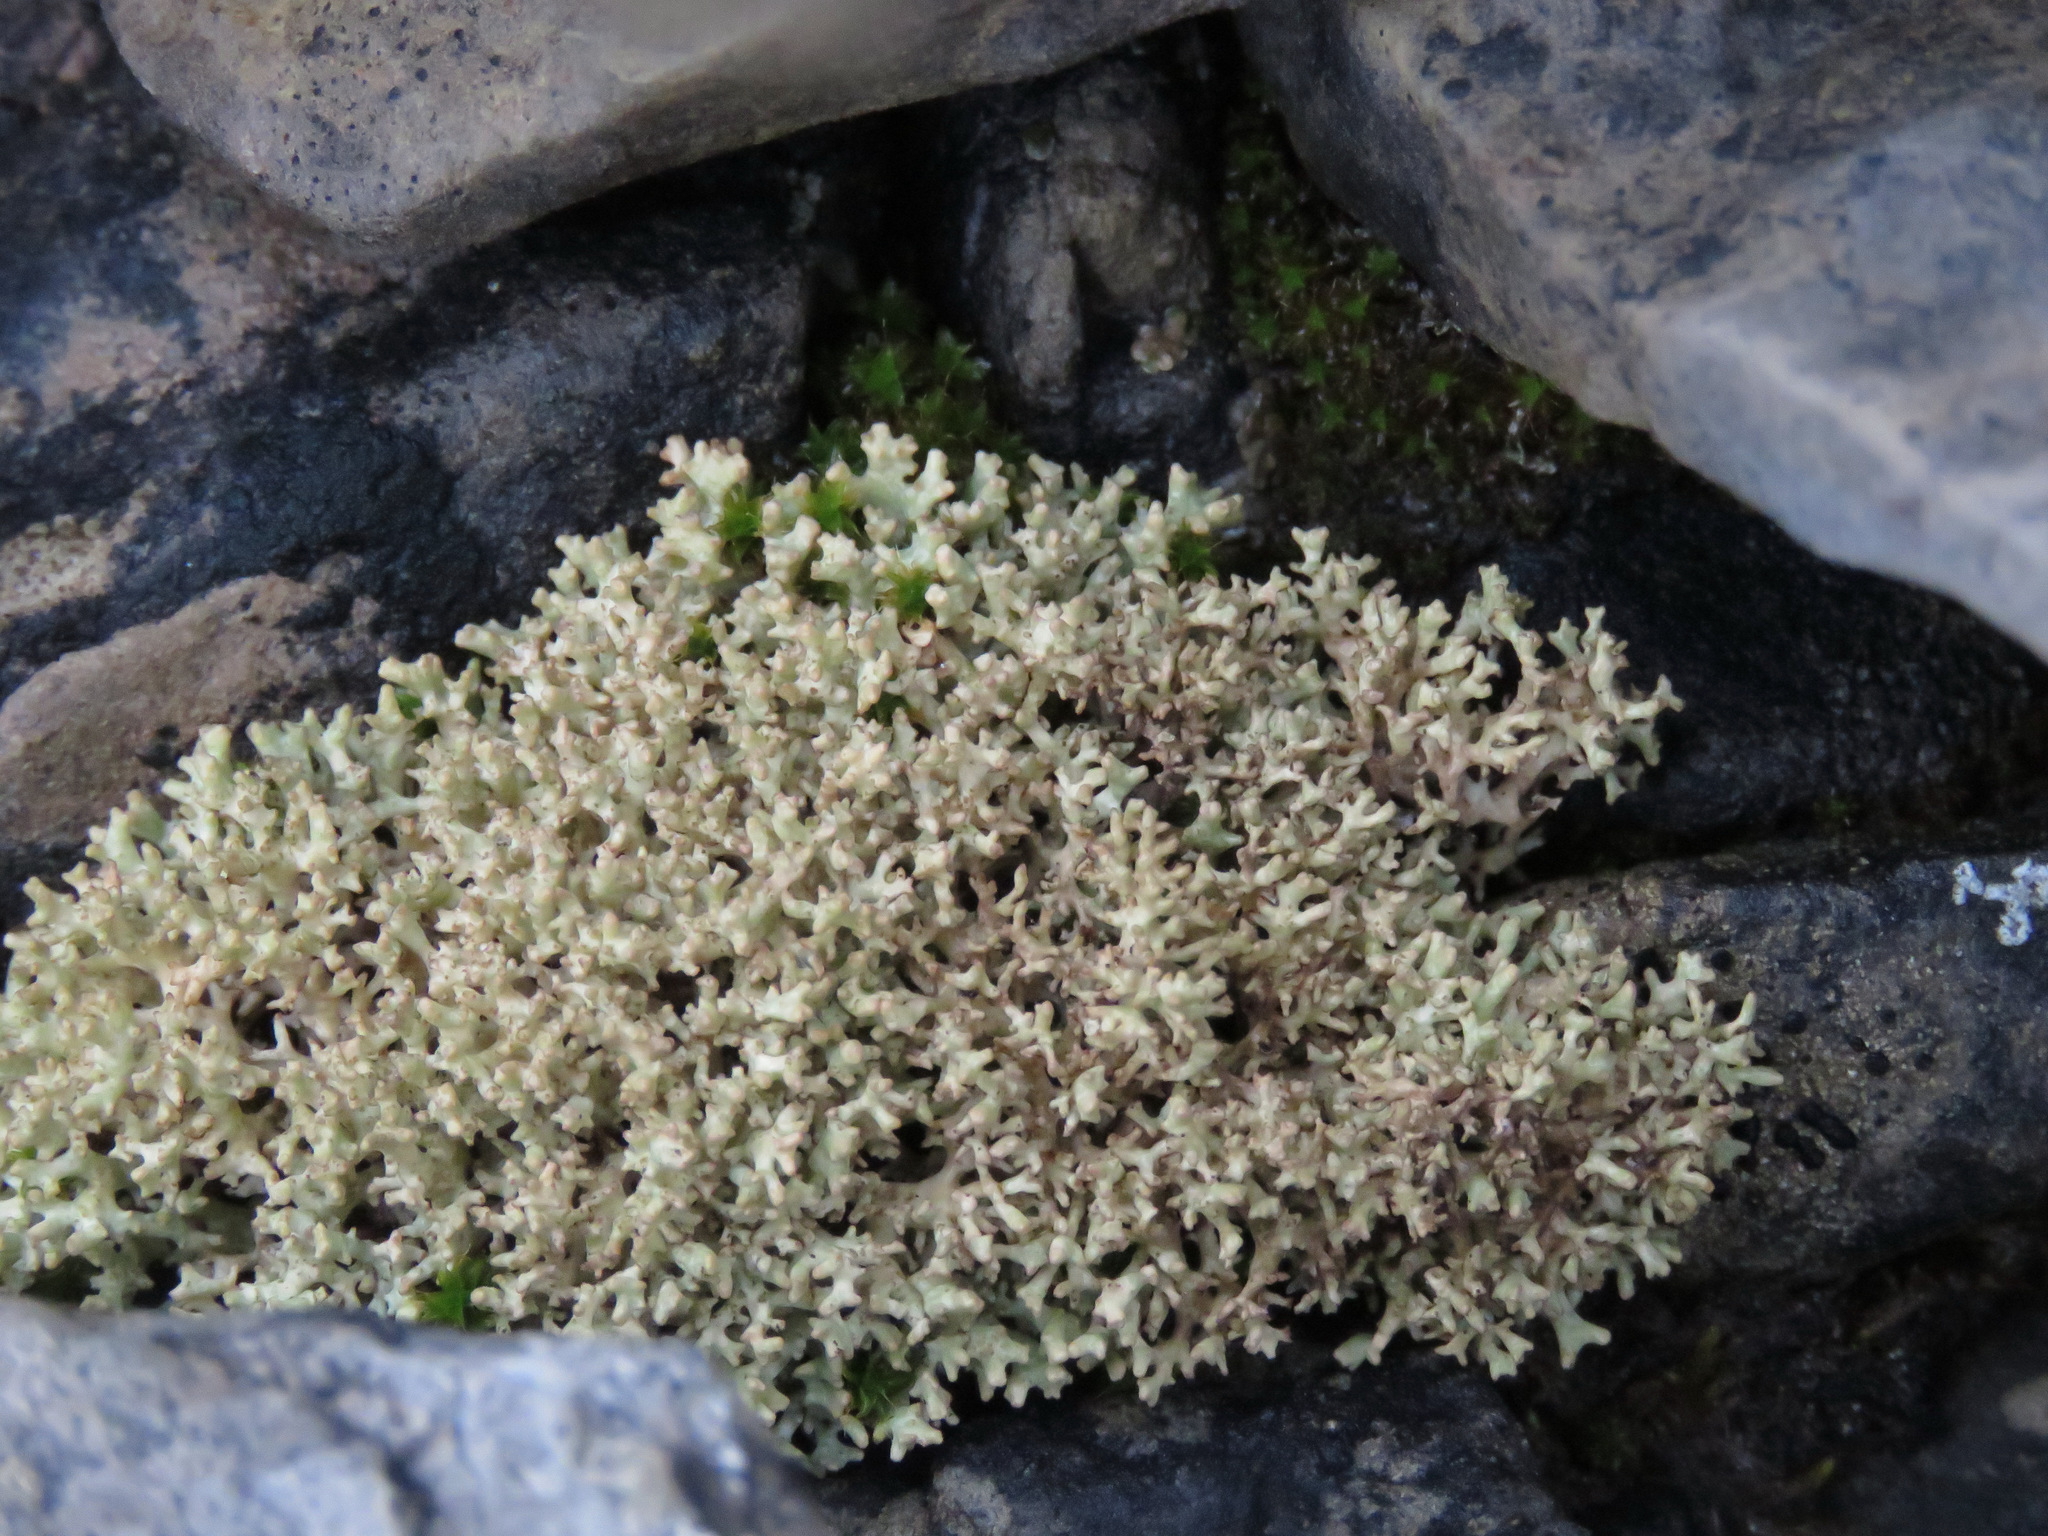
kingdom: Fungi
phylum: Ascomycota
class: Lecanoromycetes
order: Lecanorales
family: Parmeliaceae
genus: Dactylina
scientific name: Dactylina ramulosa
